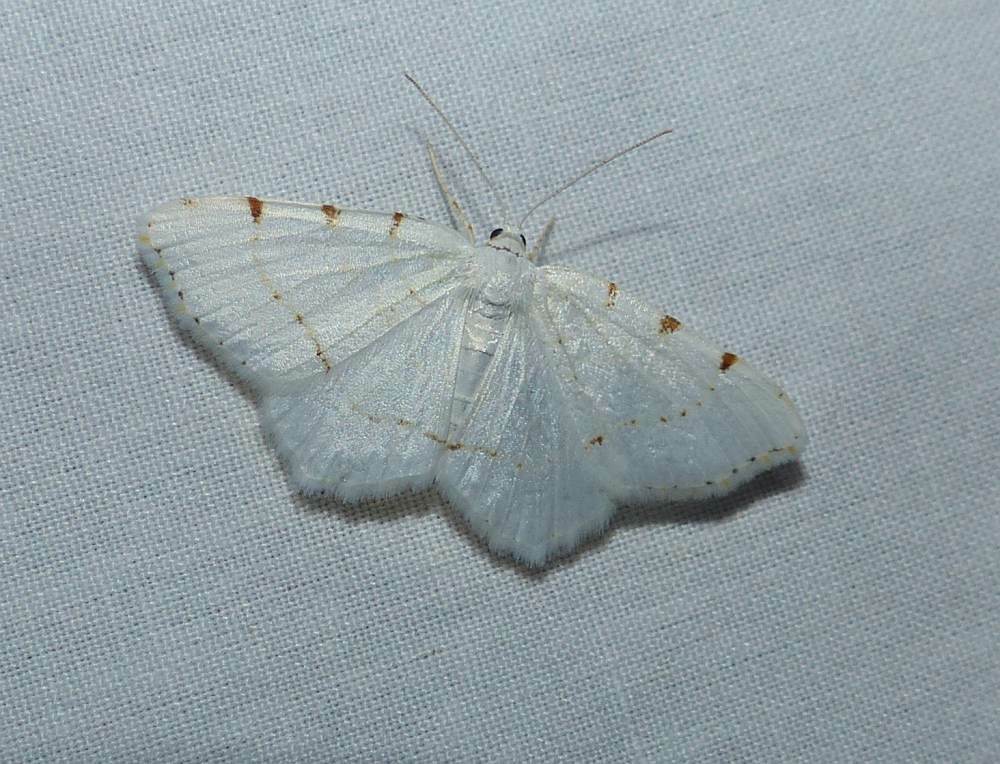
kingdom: Animalia
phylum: Arthropoda
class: Insecta
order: Lepidoptera
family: Geometridae
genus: Macaria
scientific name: Macaria pustularia
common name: Lesser maple spanworm moth
